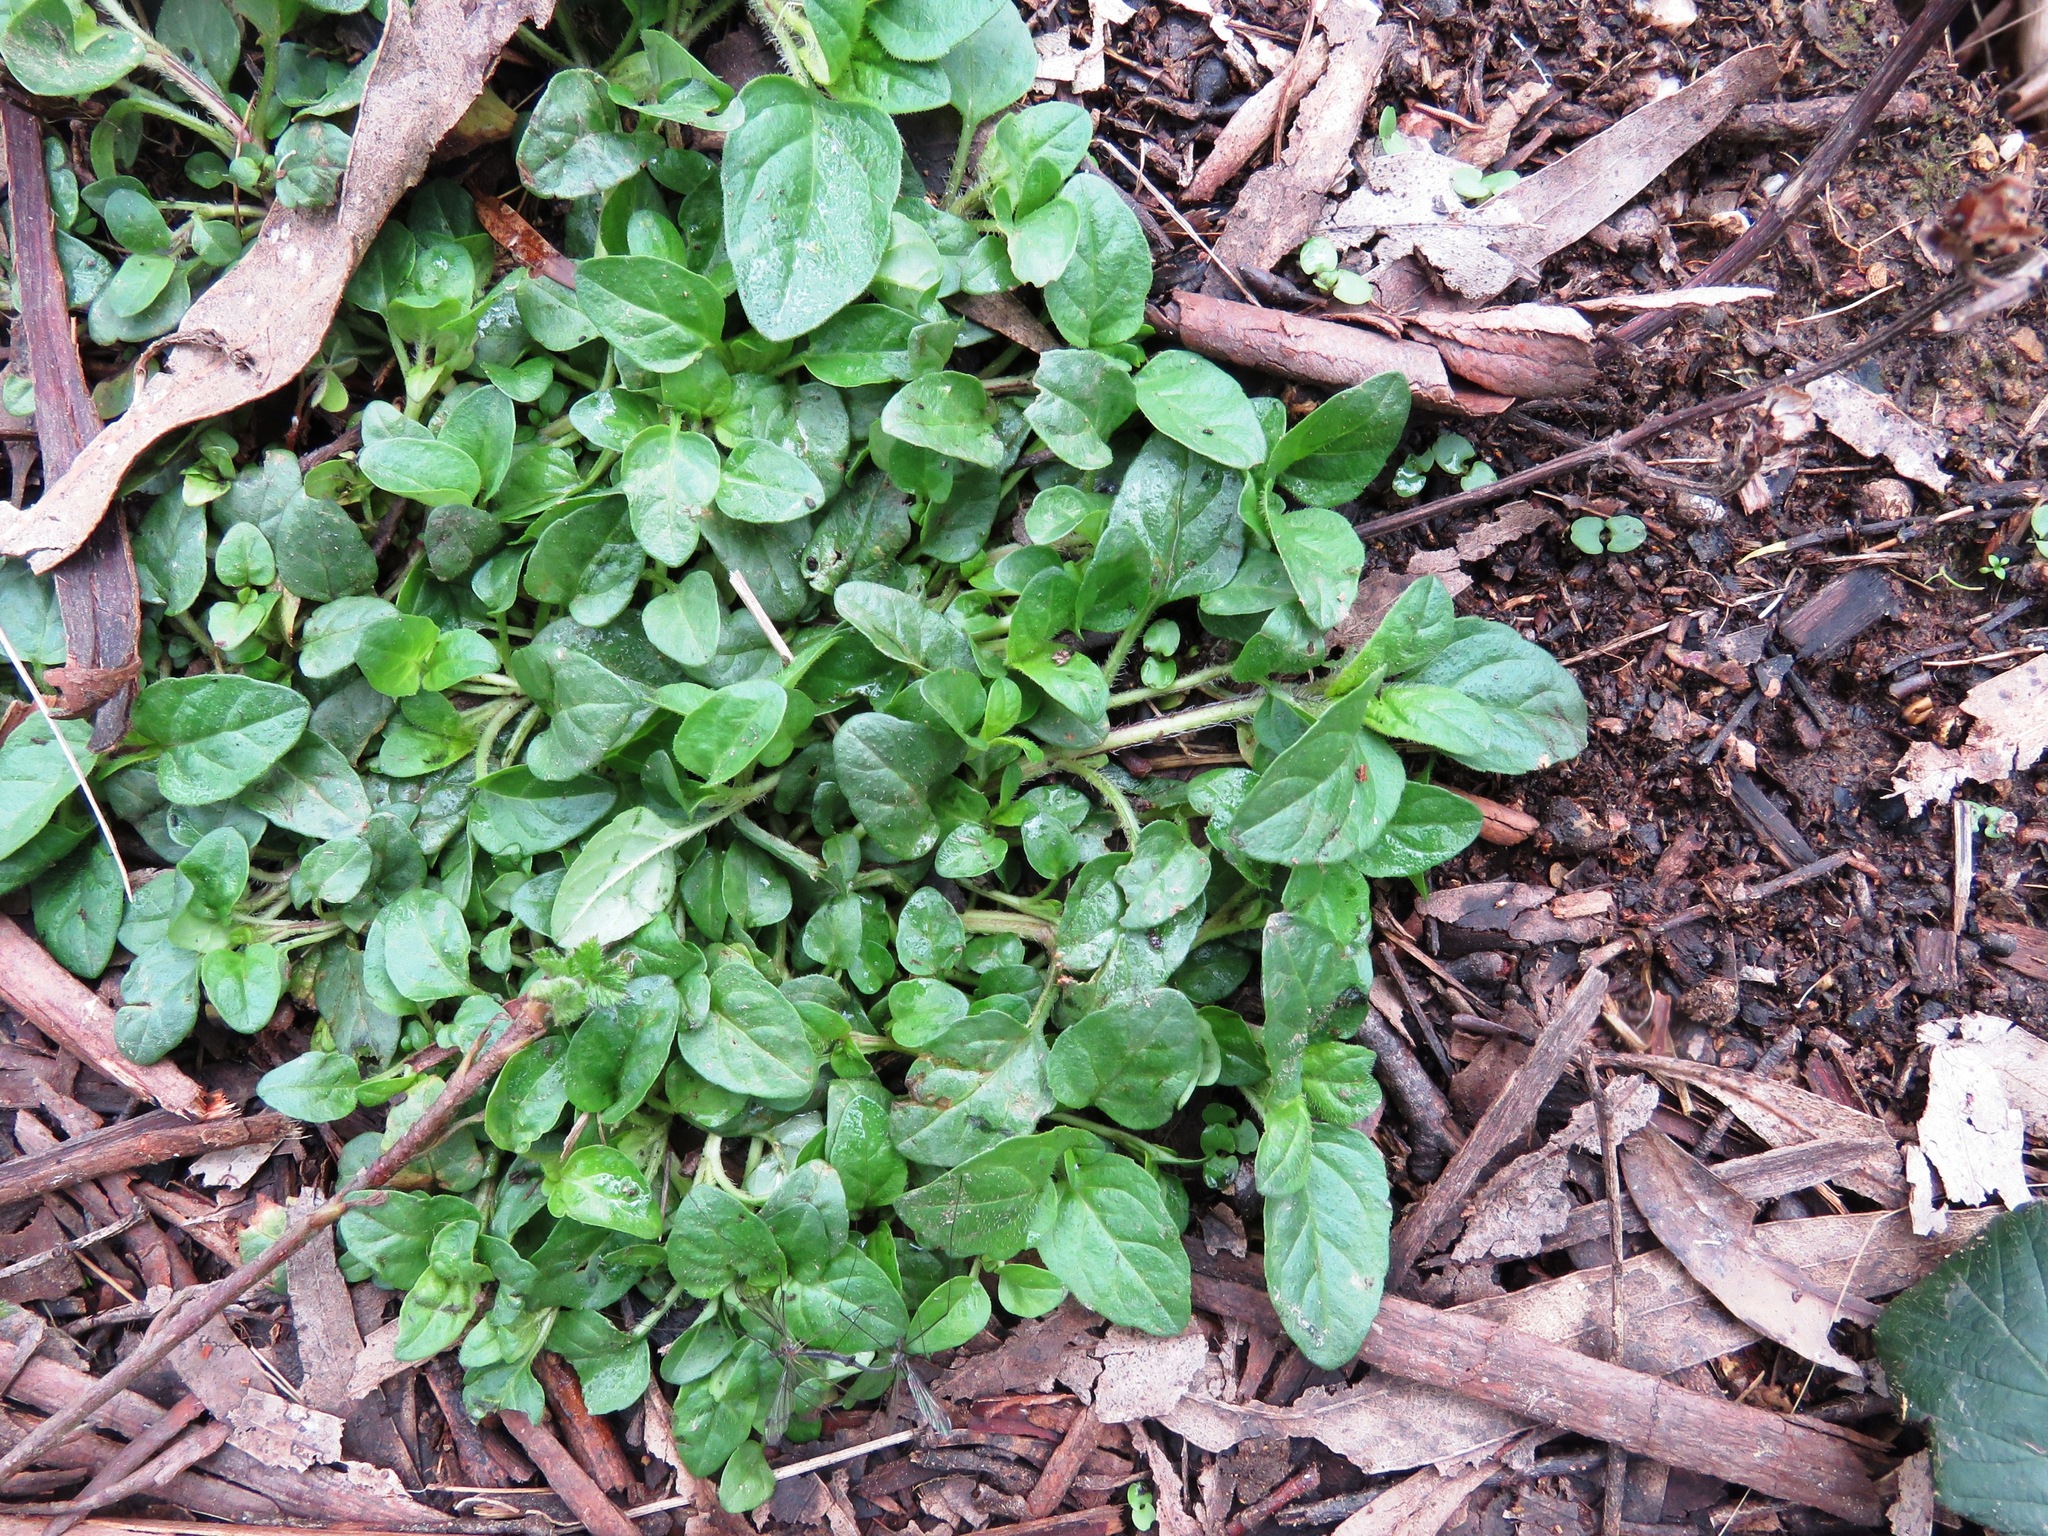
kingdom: Plantae
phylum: Tracheophyta
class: Magnoliopsida
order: Lamiales
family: Lamiaceae
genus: Prunella
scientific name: Prunella vulgaris
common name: Heal-all
